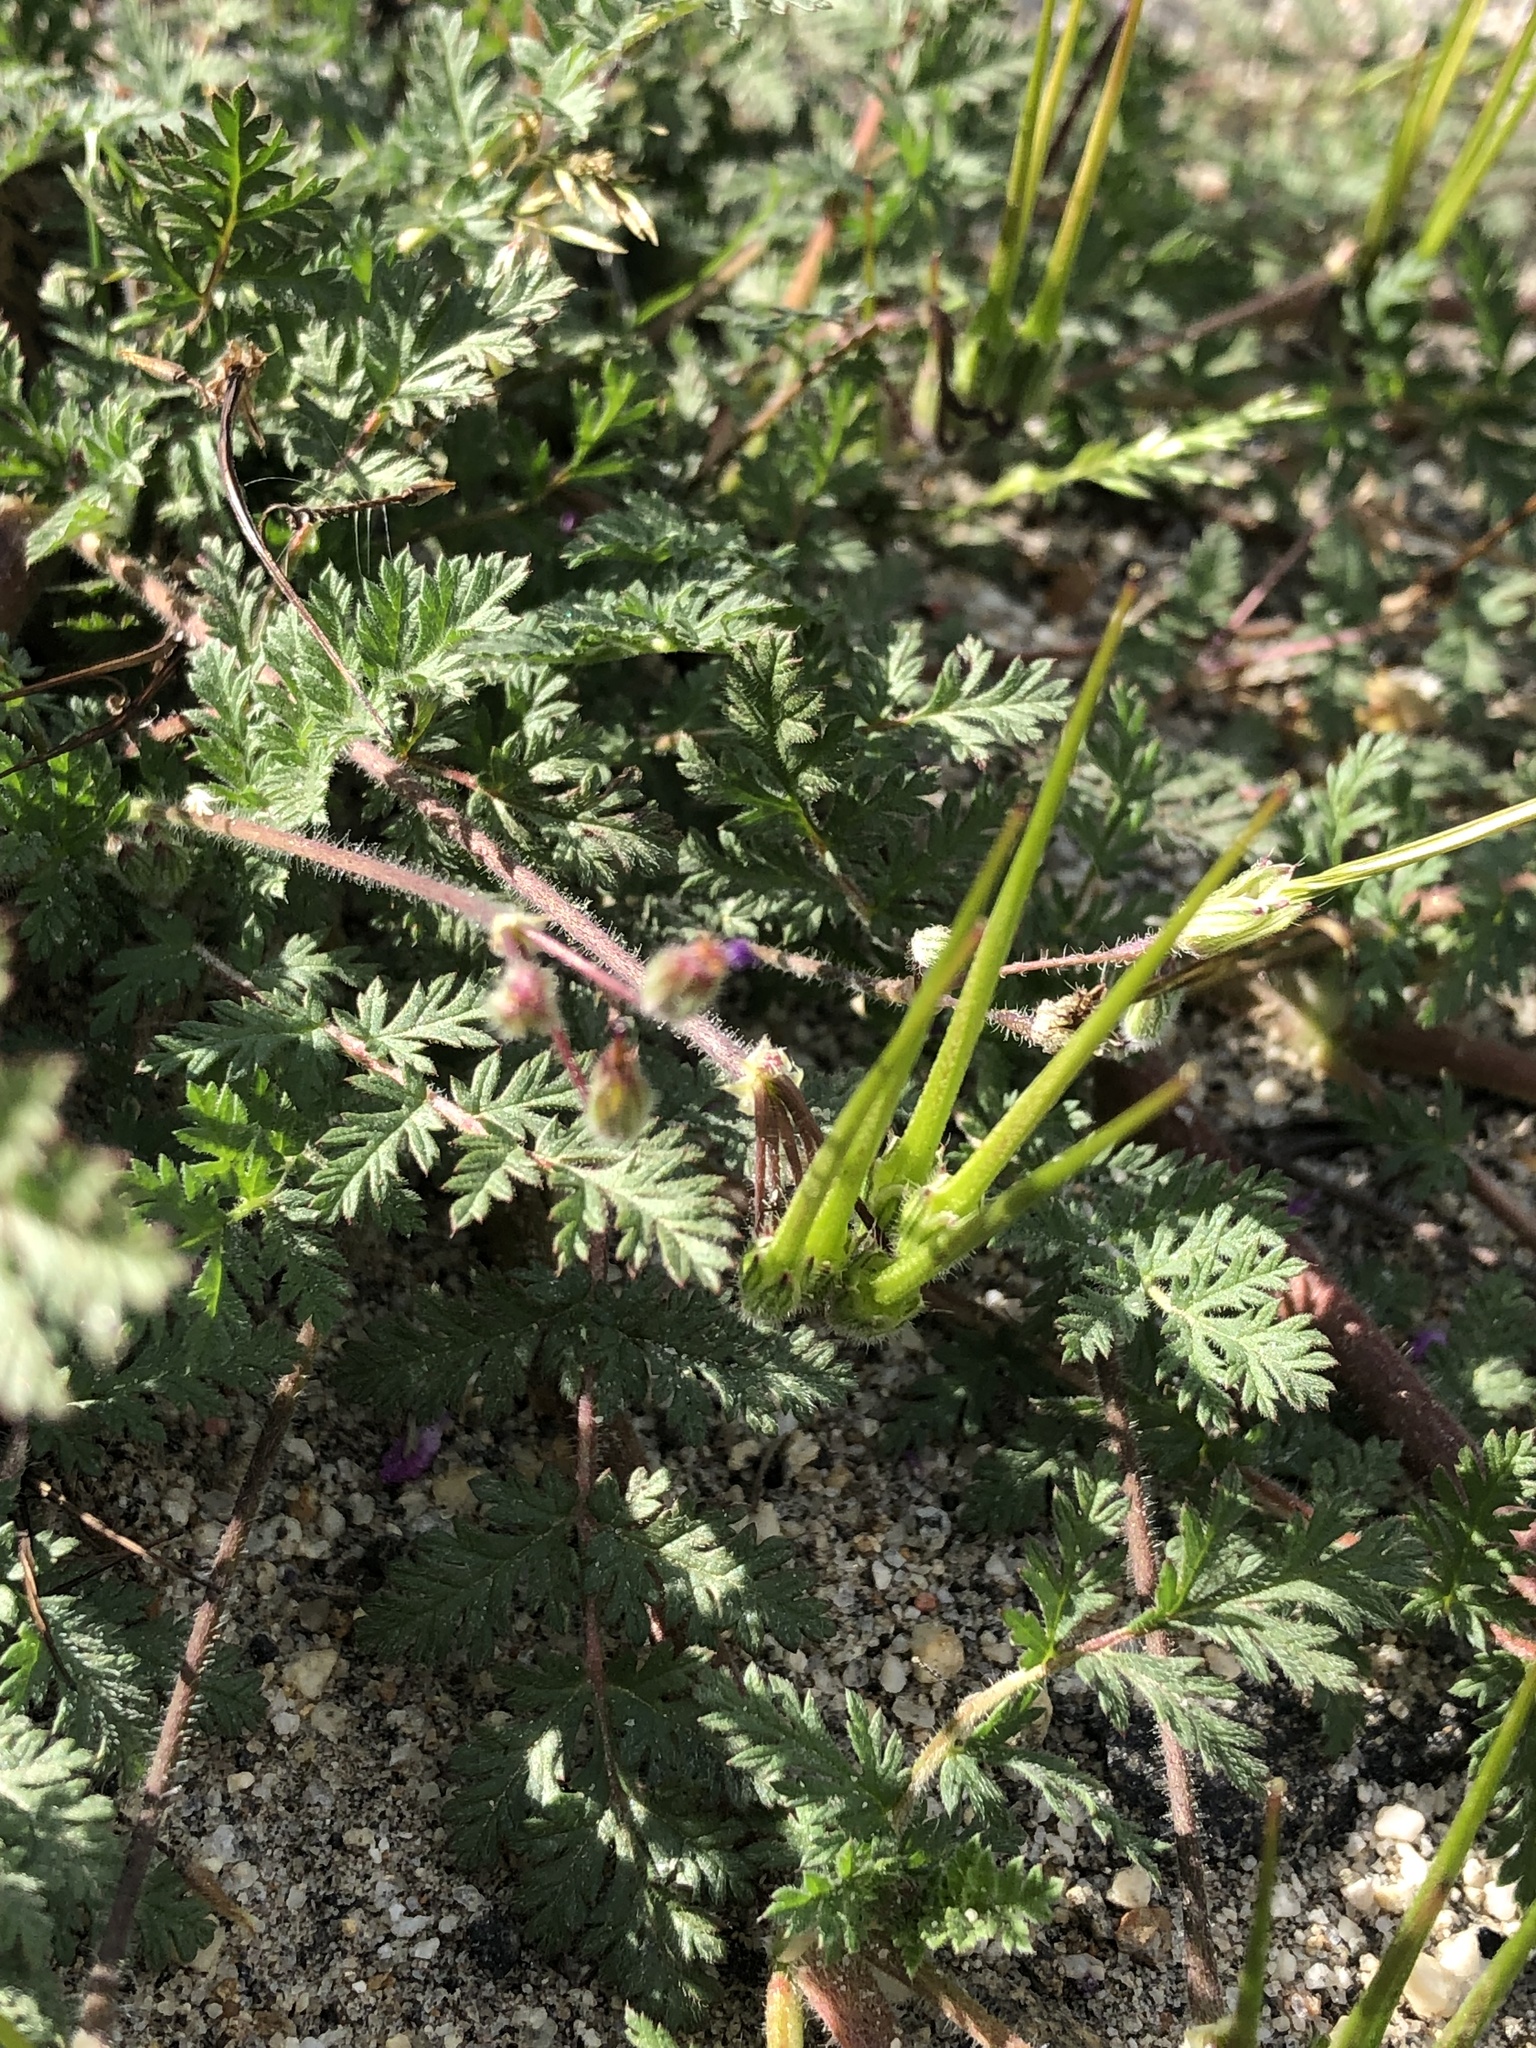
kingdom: Plantae
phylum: Tracheophyta
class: Magnoliopsida
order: Geraniales
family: Geraniaceae
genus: Erodium
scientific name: Erodium cicutarium
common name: Common stork's-bill
